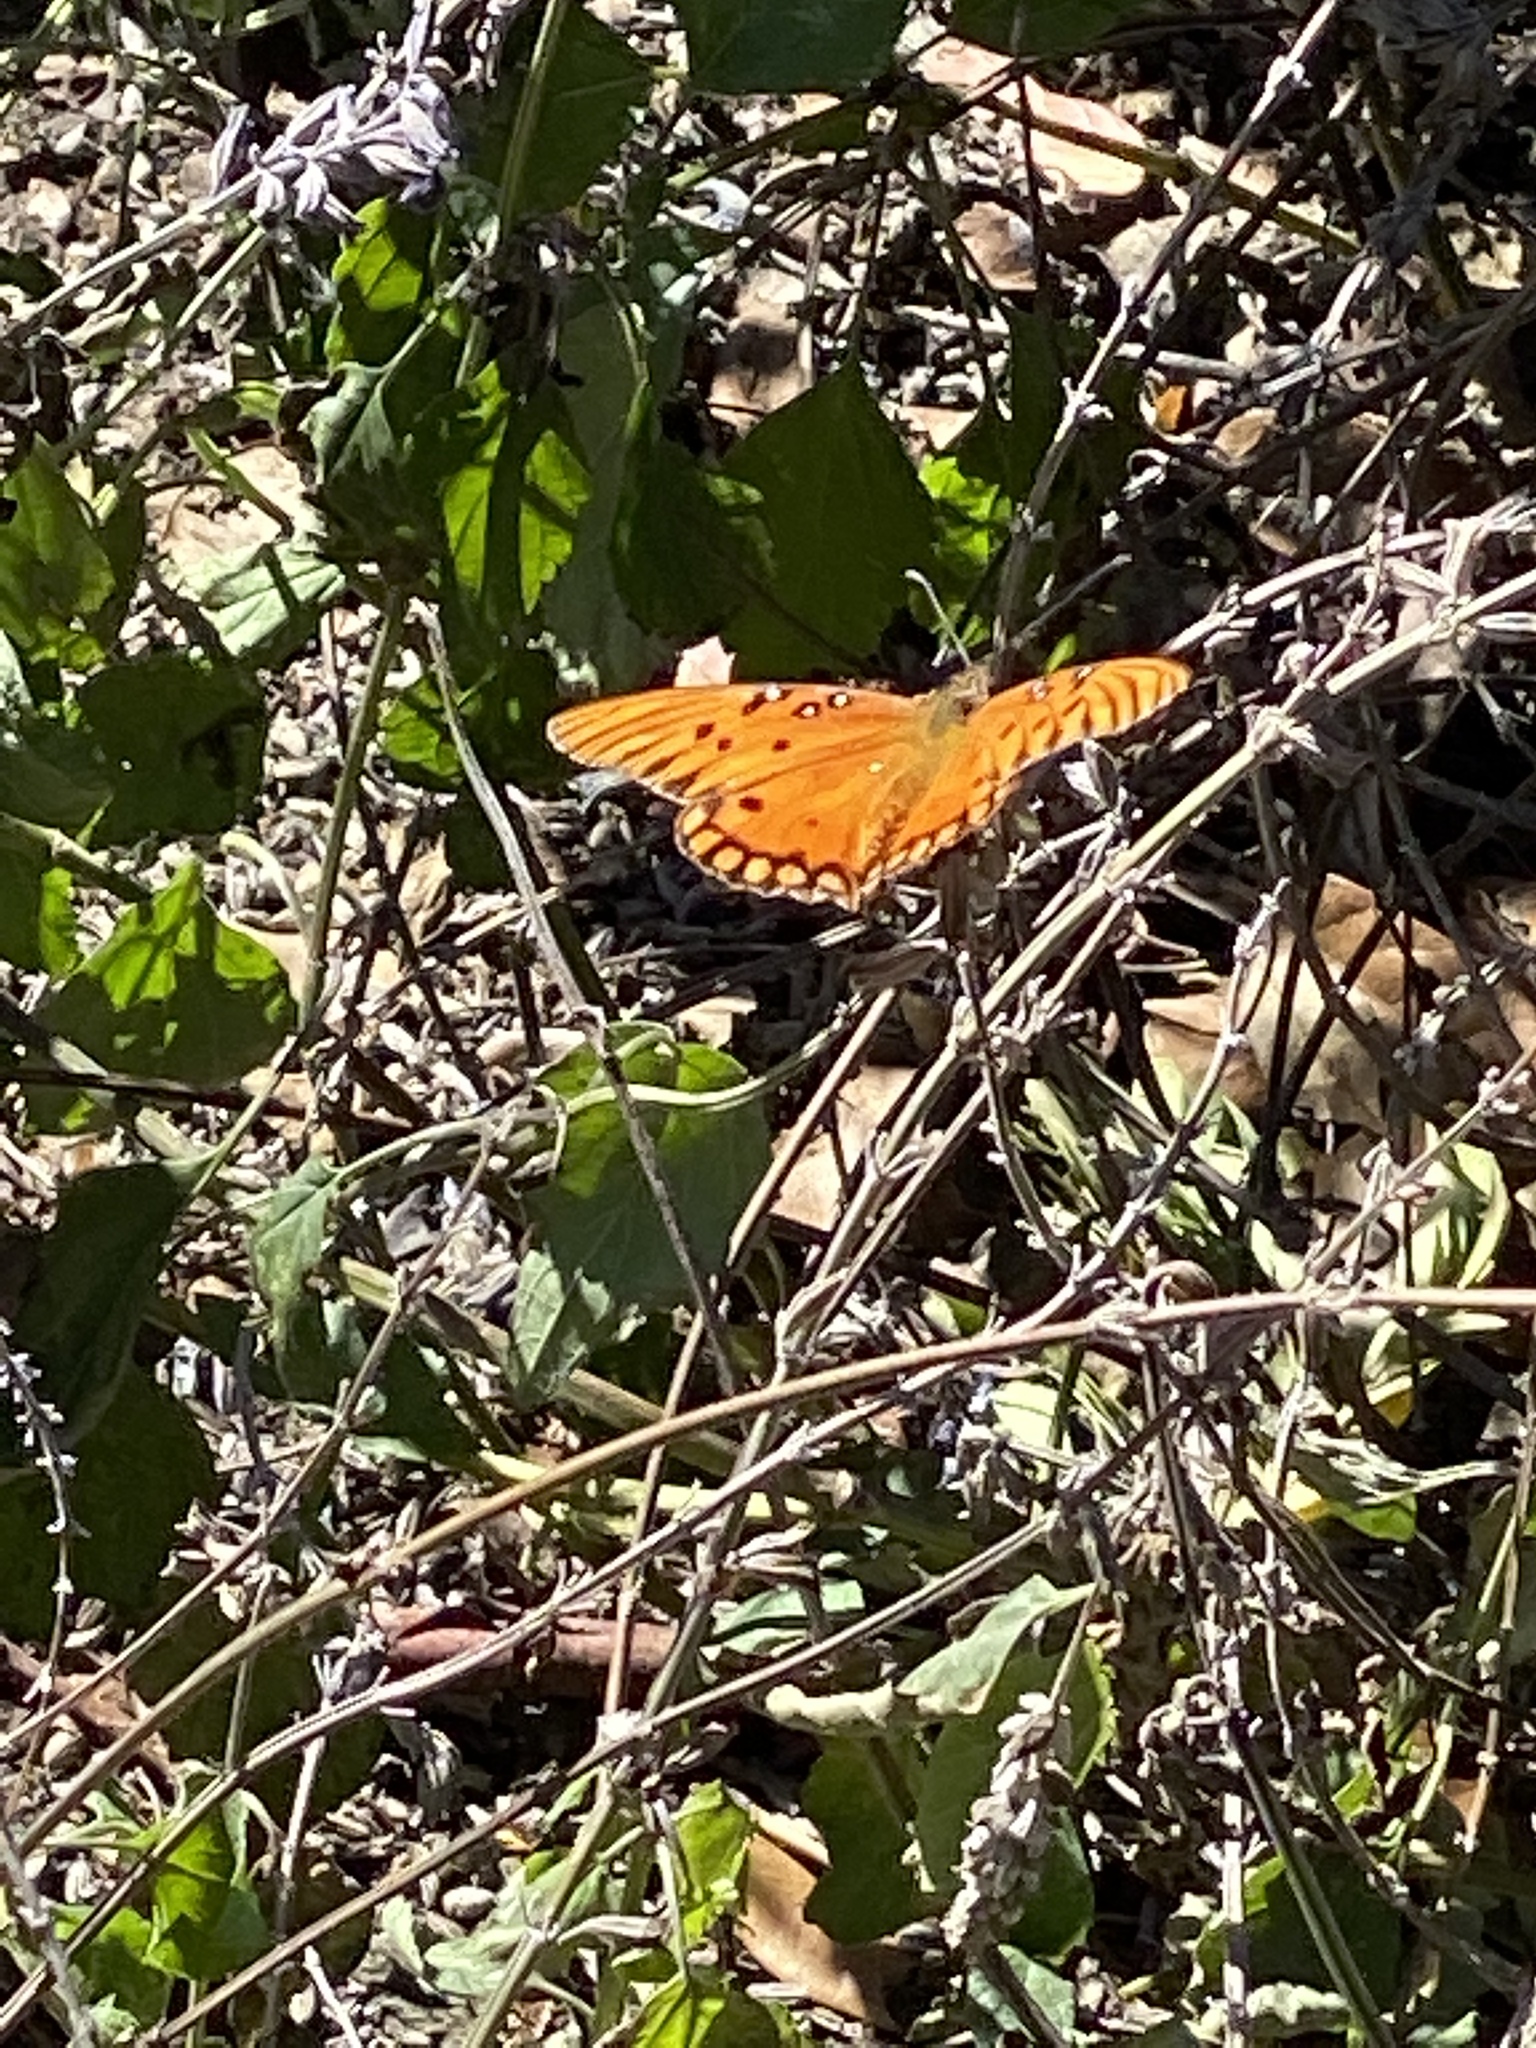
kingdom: Animalia
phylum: Arthropoda
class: Insecta
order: Lepidoptera
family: Nymphalidae
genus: Dione
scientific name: Dione vanillae
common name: Gulf fritillary
